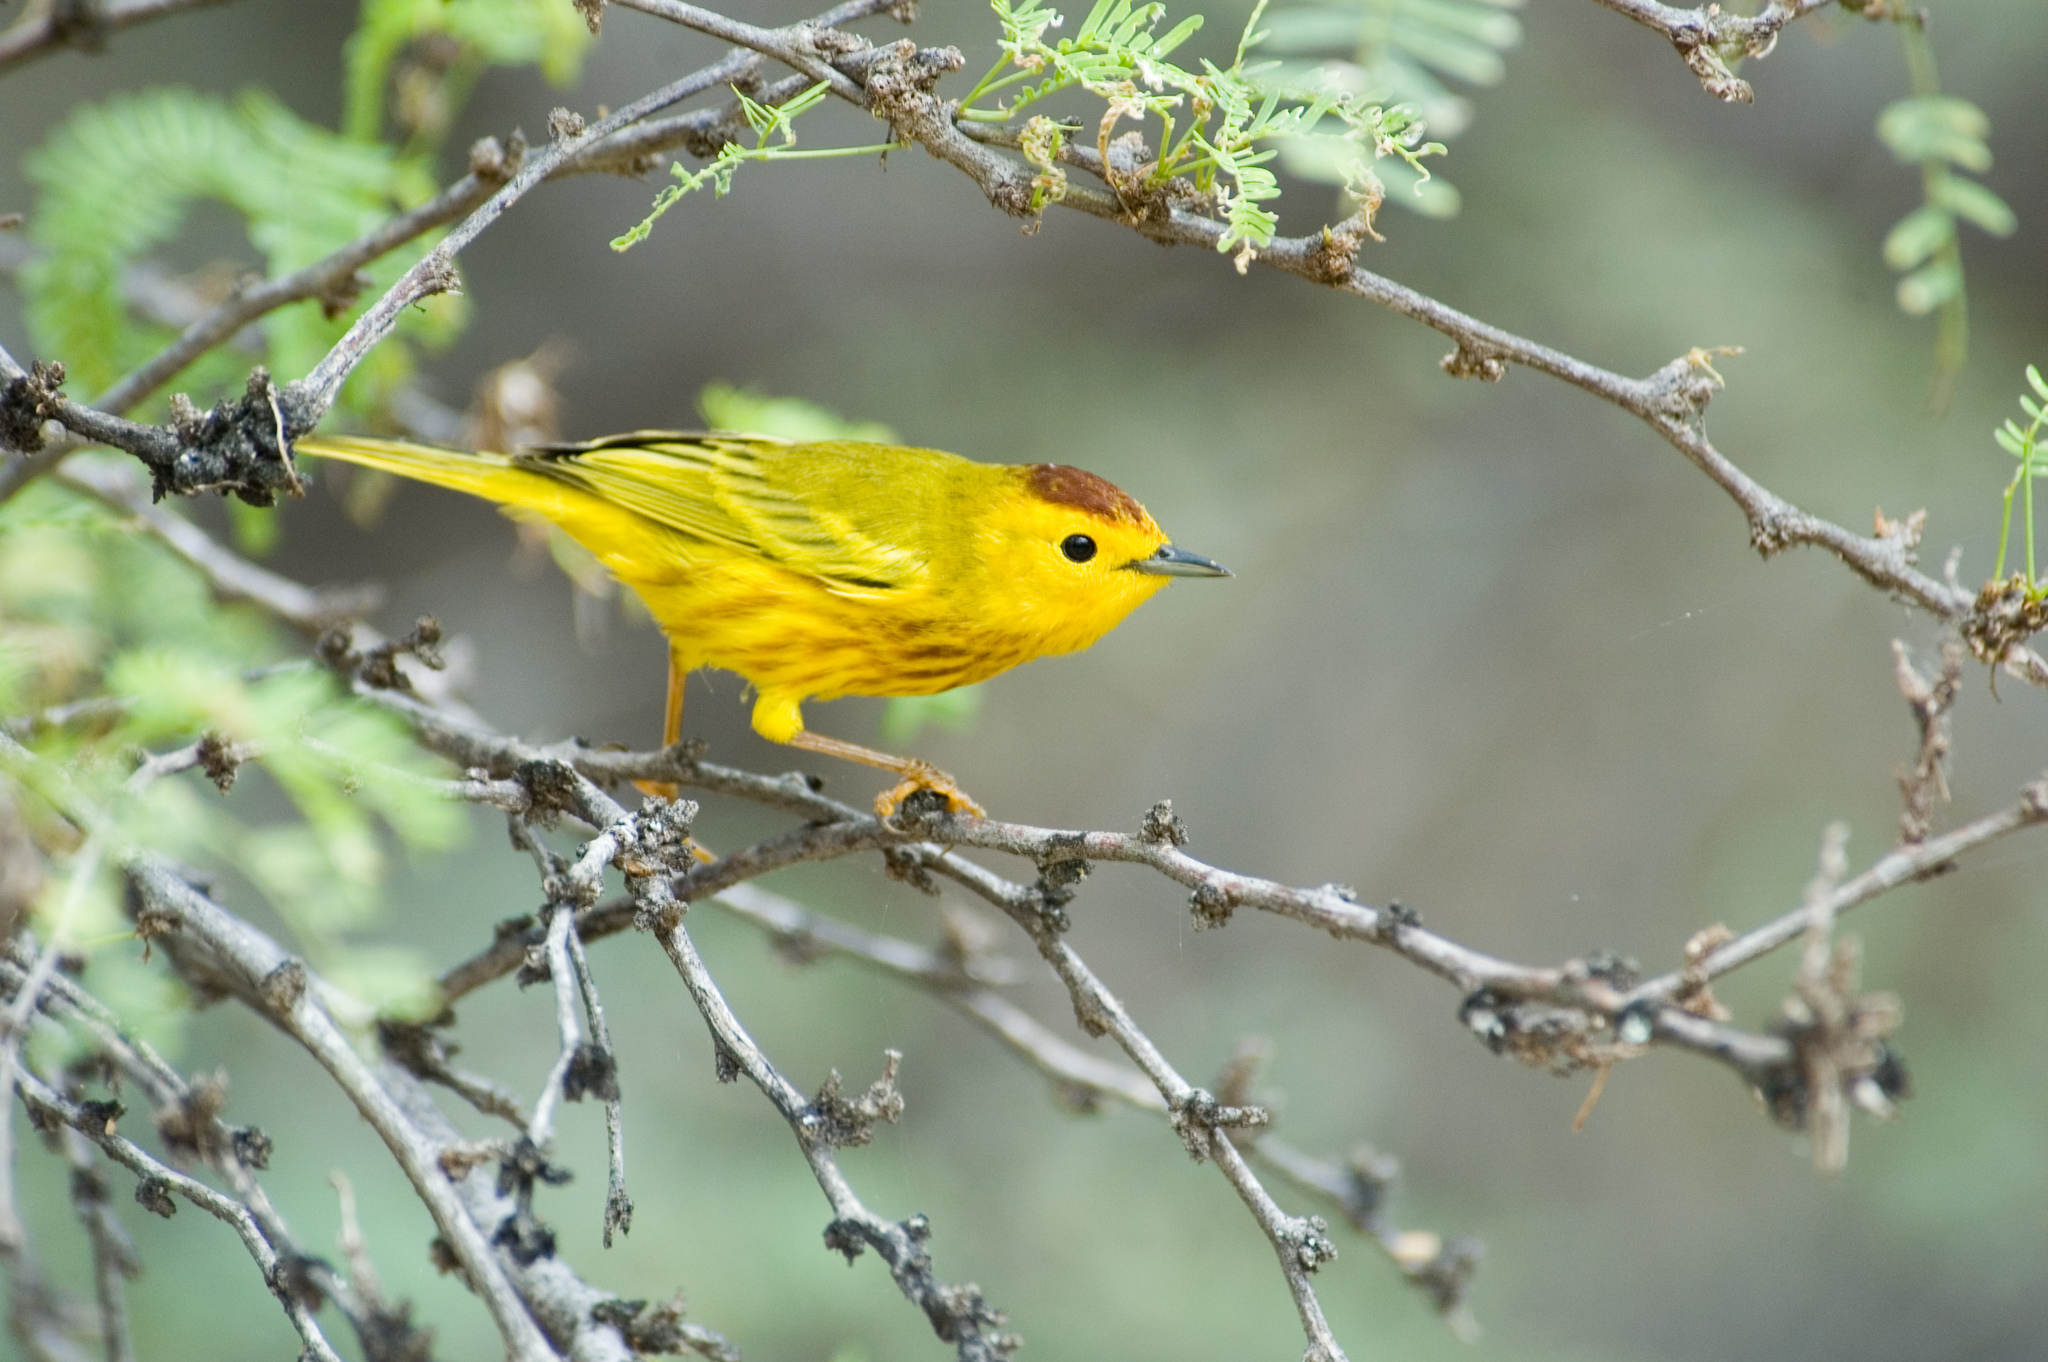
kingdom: Animalia
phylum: Chordata
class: Aves
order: Passeriformes
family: Parulidae
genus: Setophaga
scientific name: Setophaga petechia
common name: Yellow warbler
